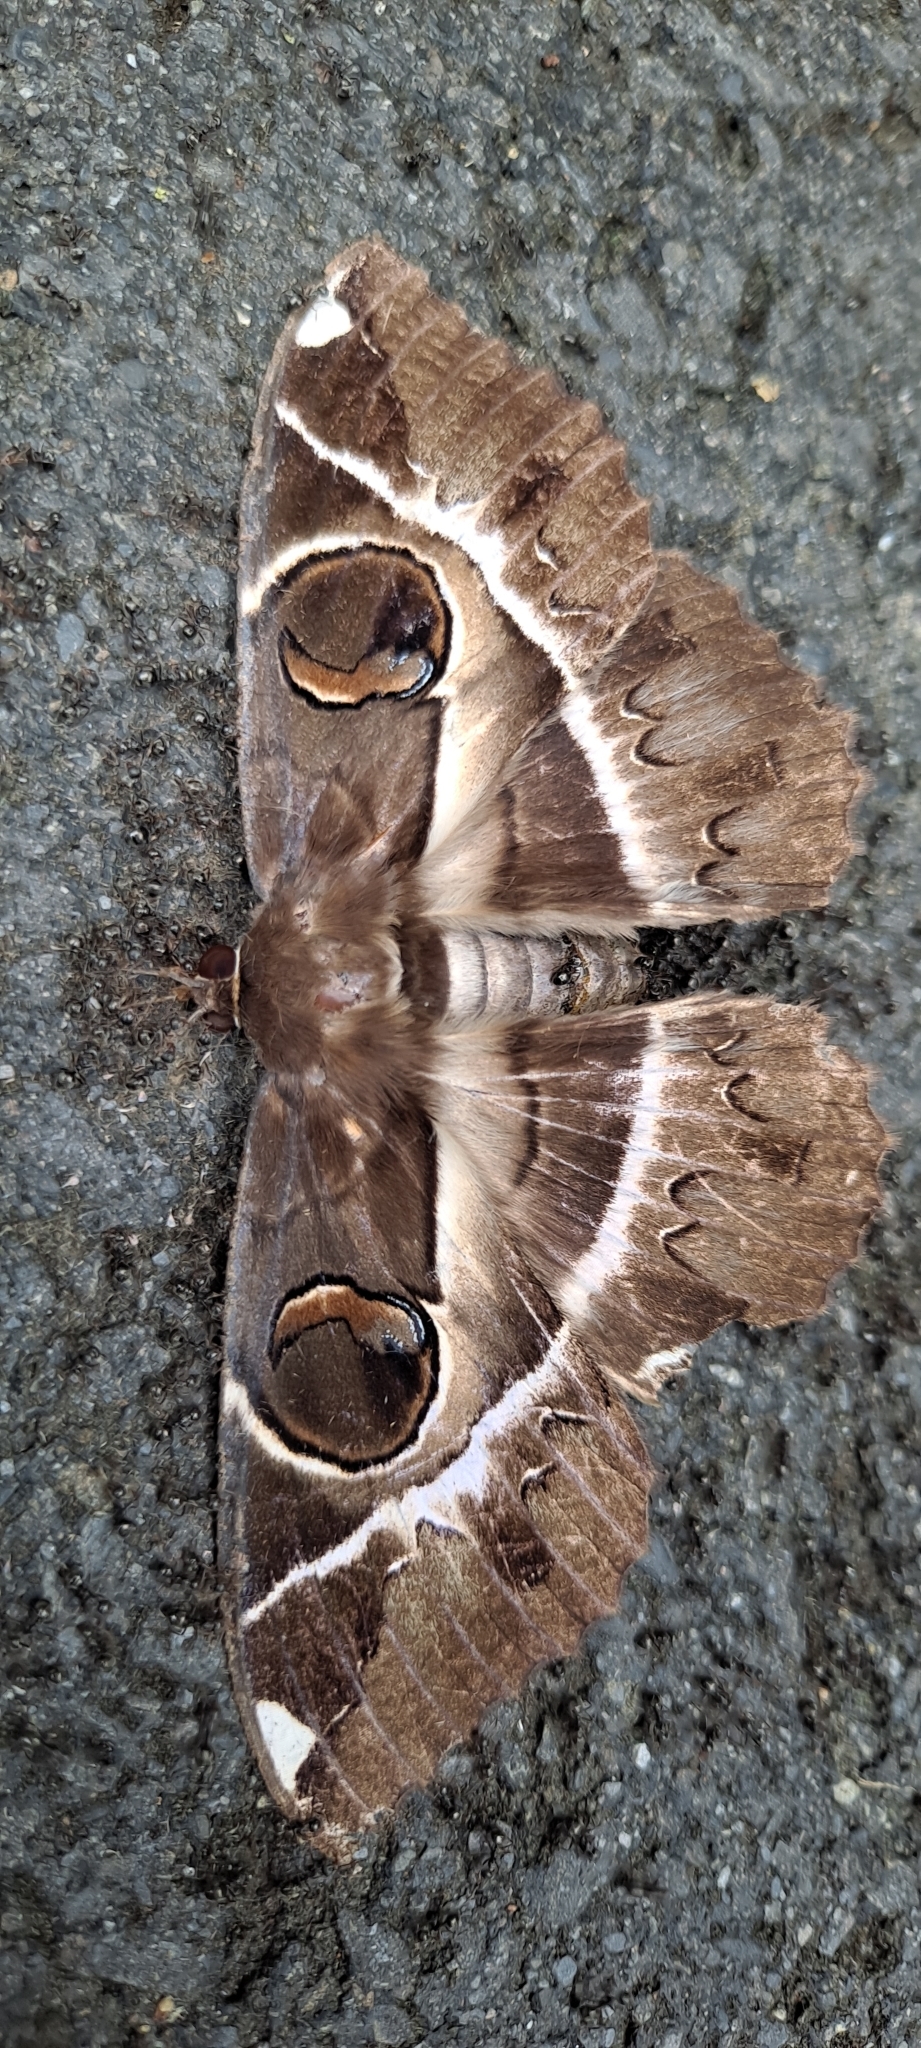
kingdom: Animalia
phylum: Arthropoda
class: Insecta
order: Lepidoptera
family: Erebidae
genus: Erebus
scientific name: Erebus ephesperis
